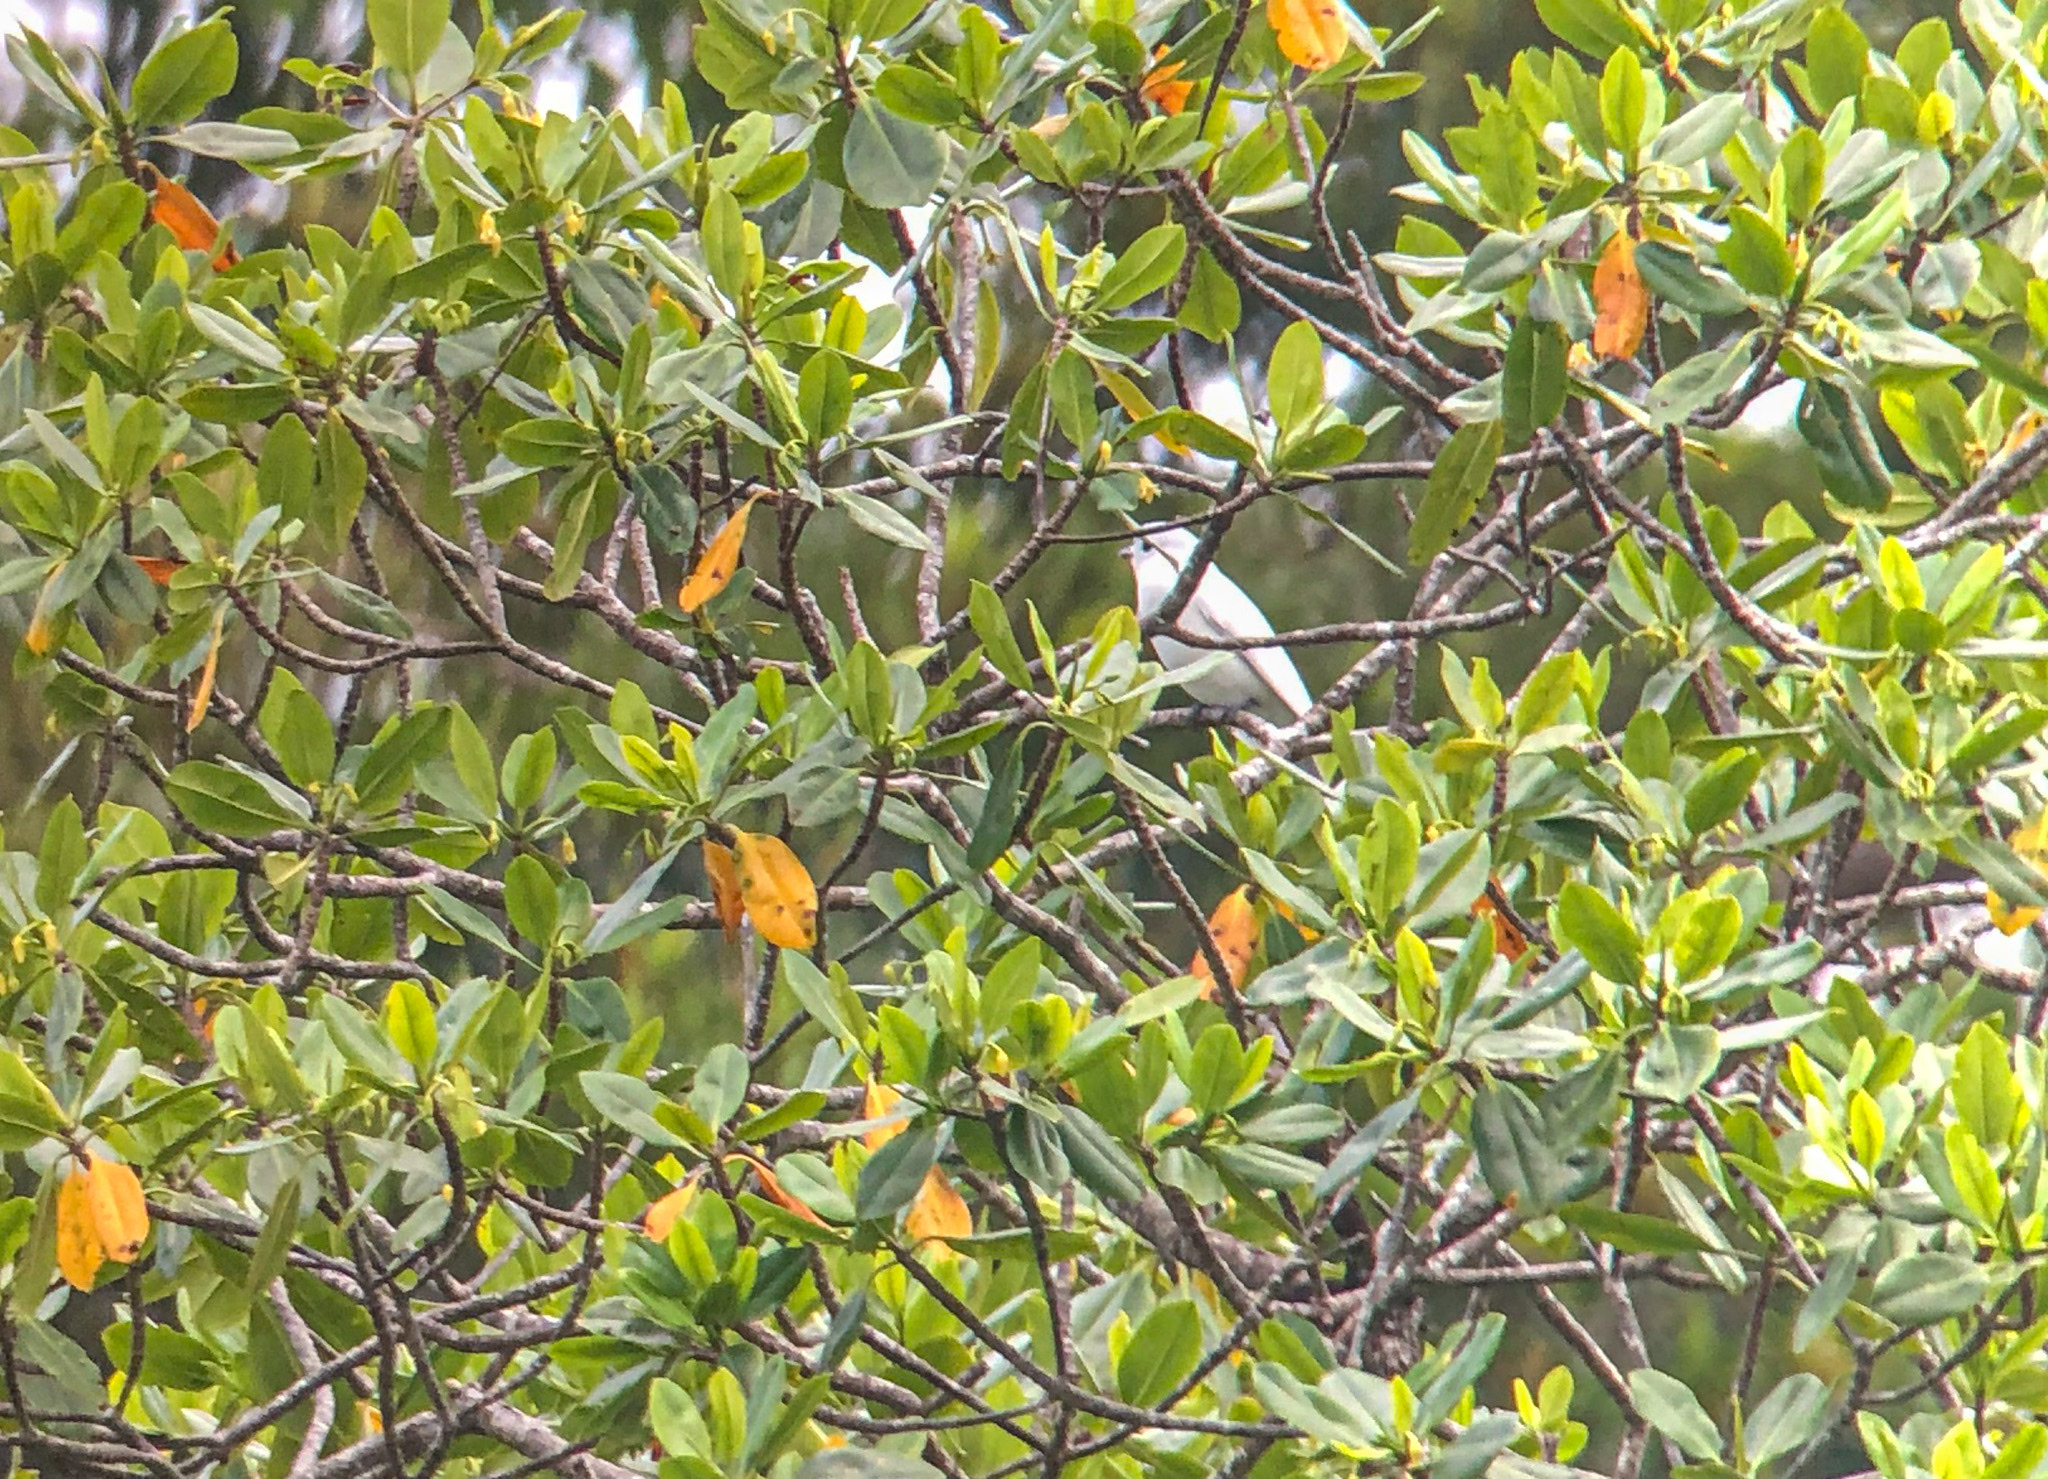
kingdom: Animalia
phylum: Chordata
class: Aves
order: Passeriformes
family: Cotingidae
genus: Carpodectes
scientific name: Carpodectes nitidus
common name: Snowy cotinga
